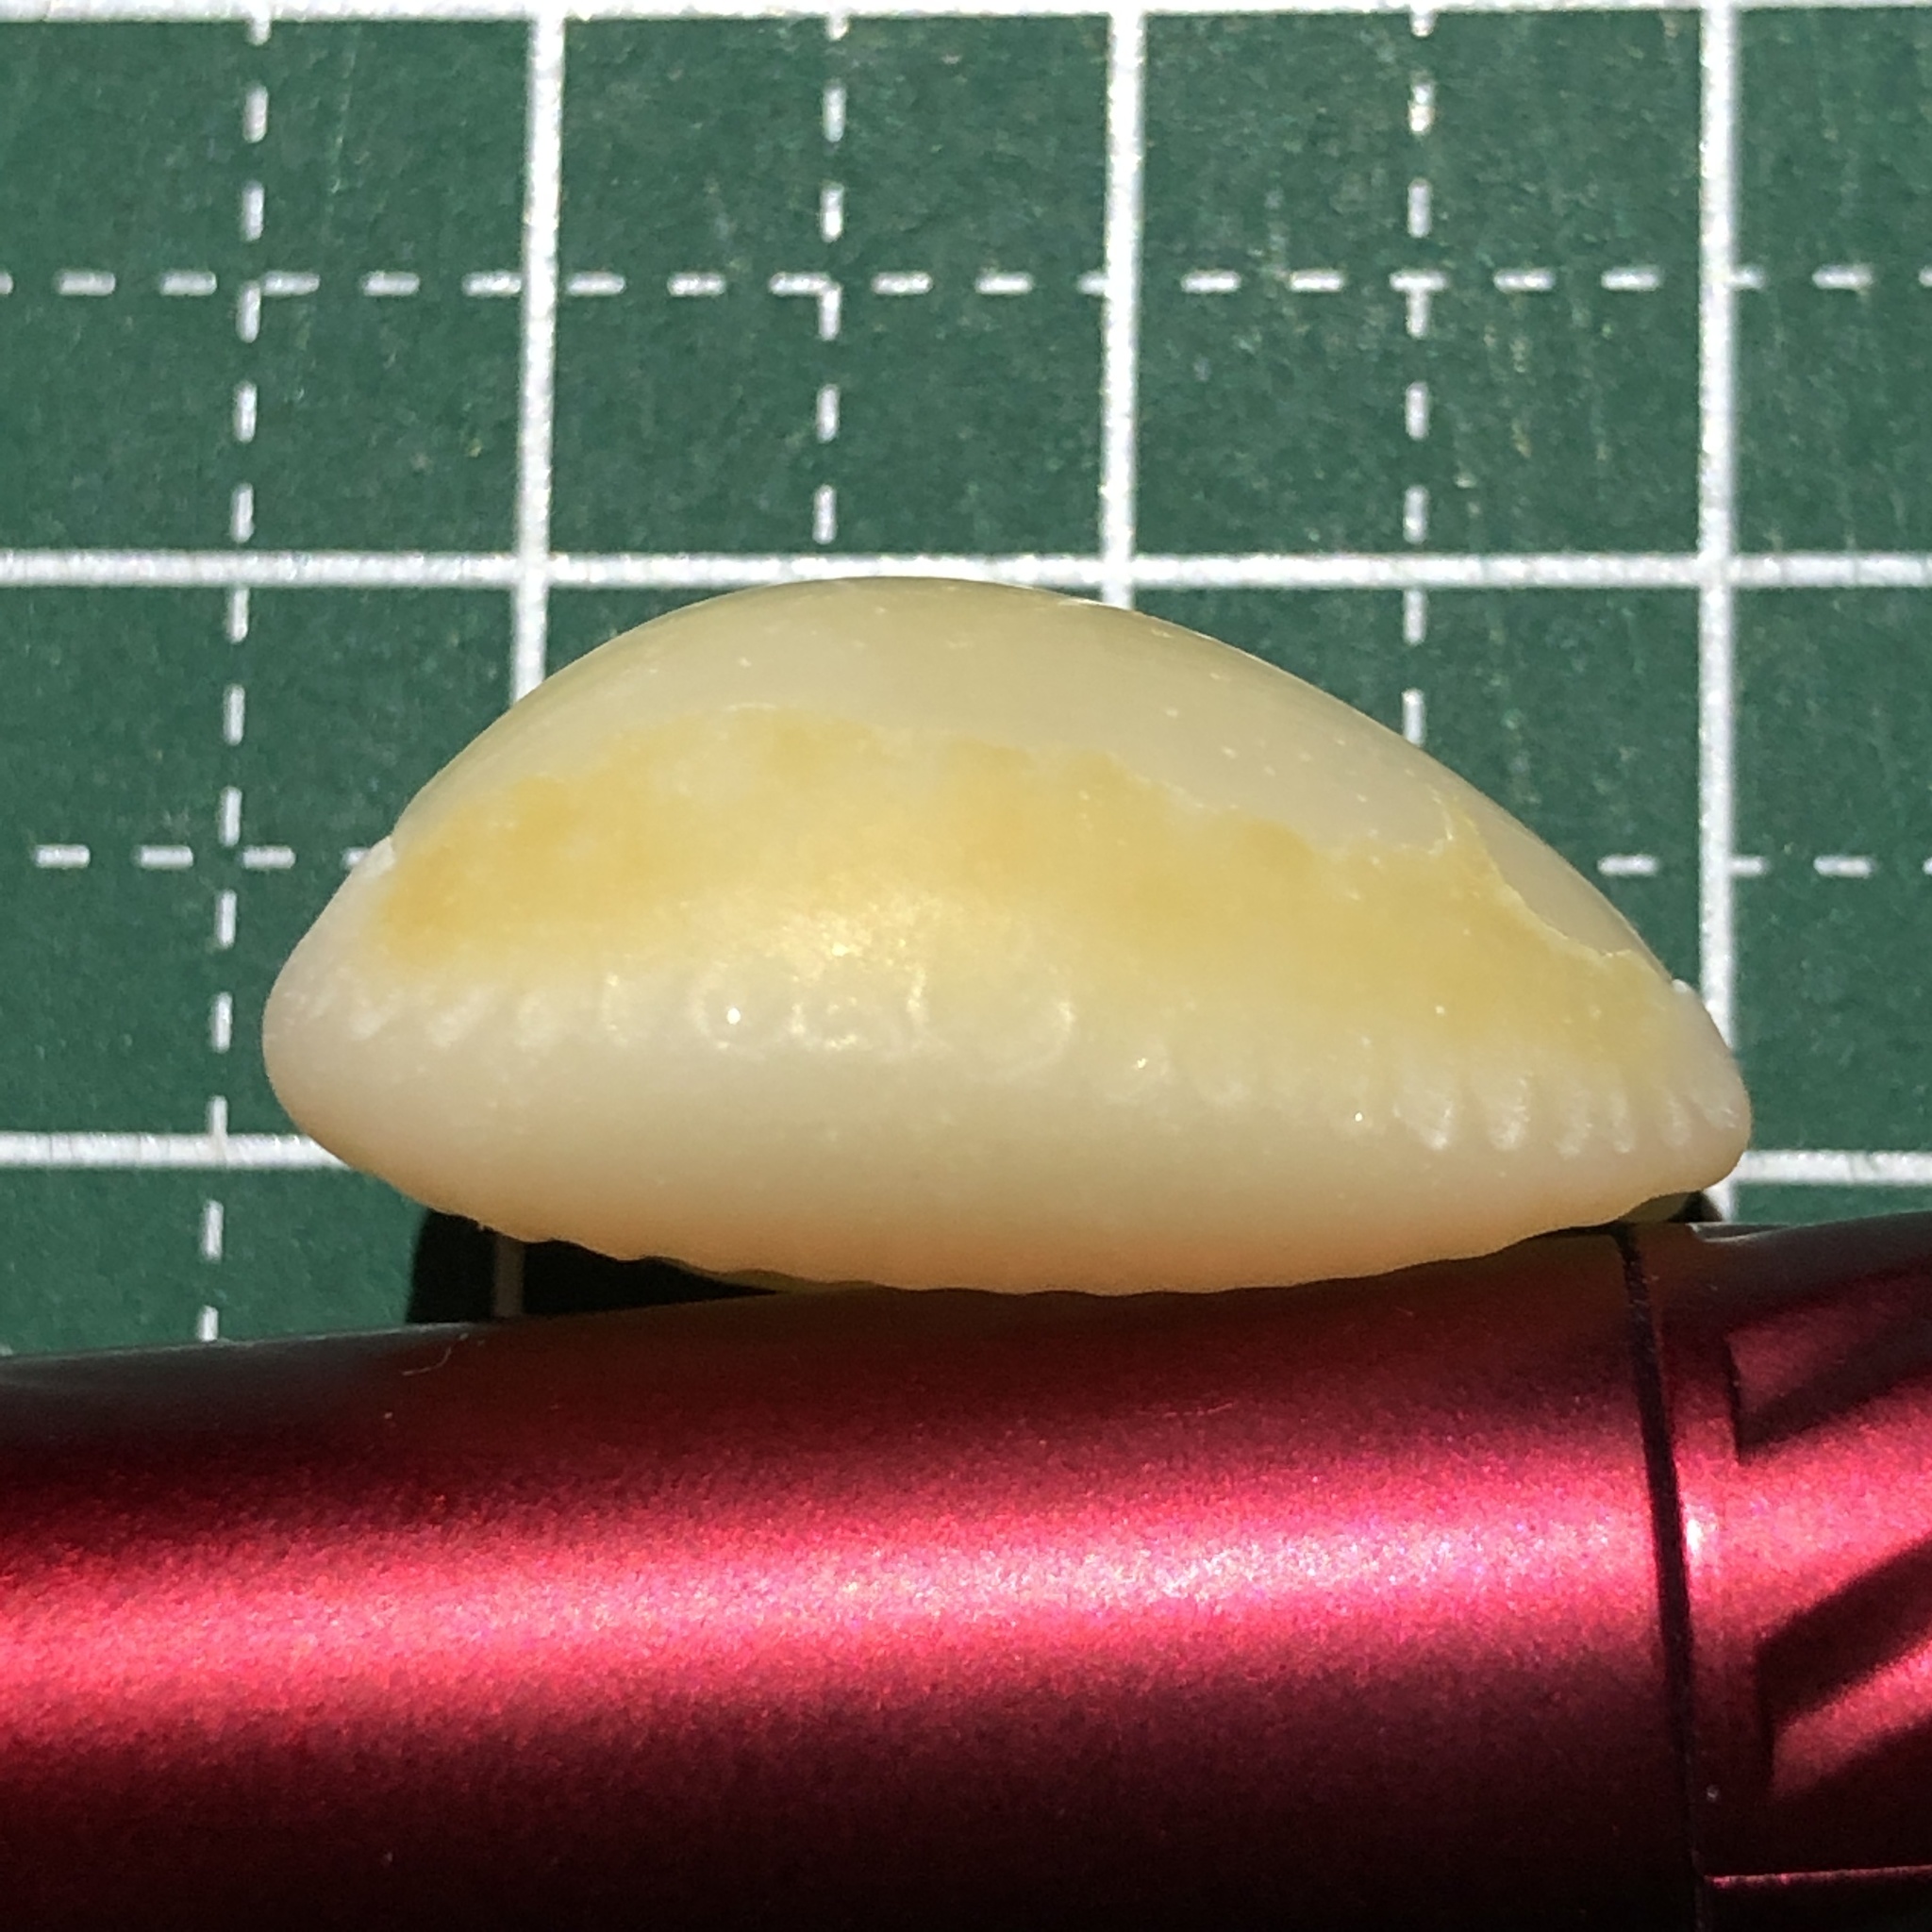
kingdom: Animalia
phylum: Mollusca
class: Gastropoda
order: Littorinimorpha
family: Cypraeidae
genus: Naria
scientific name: Naria helvola
